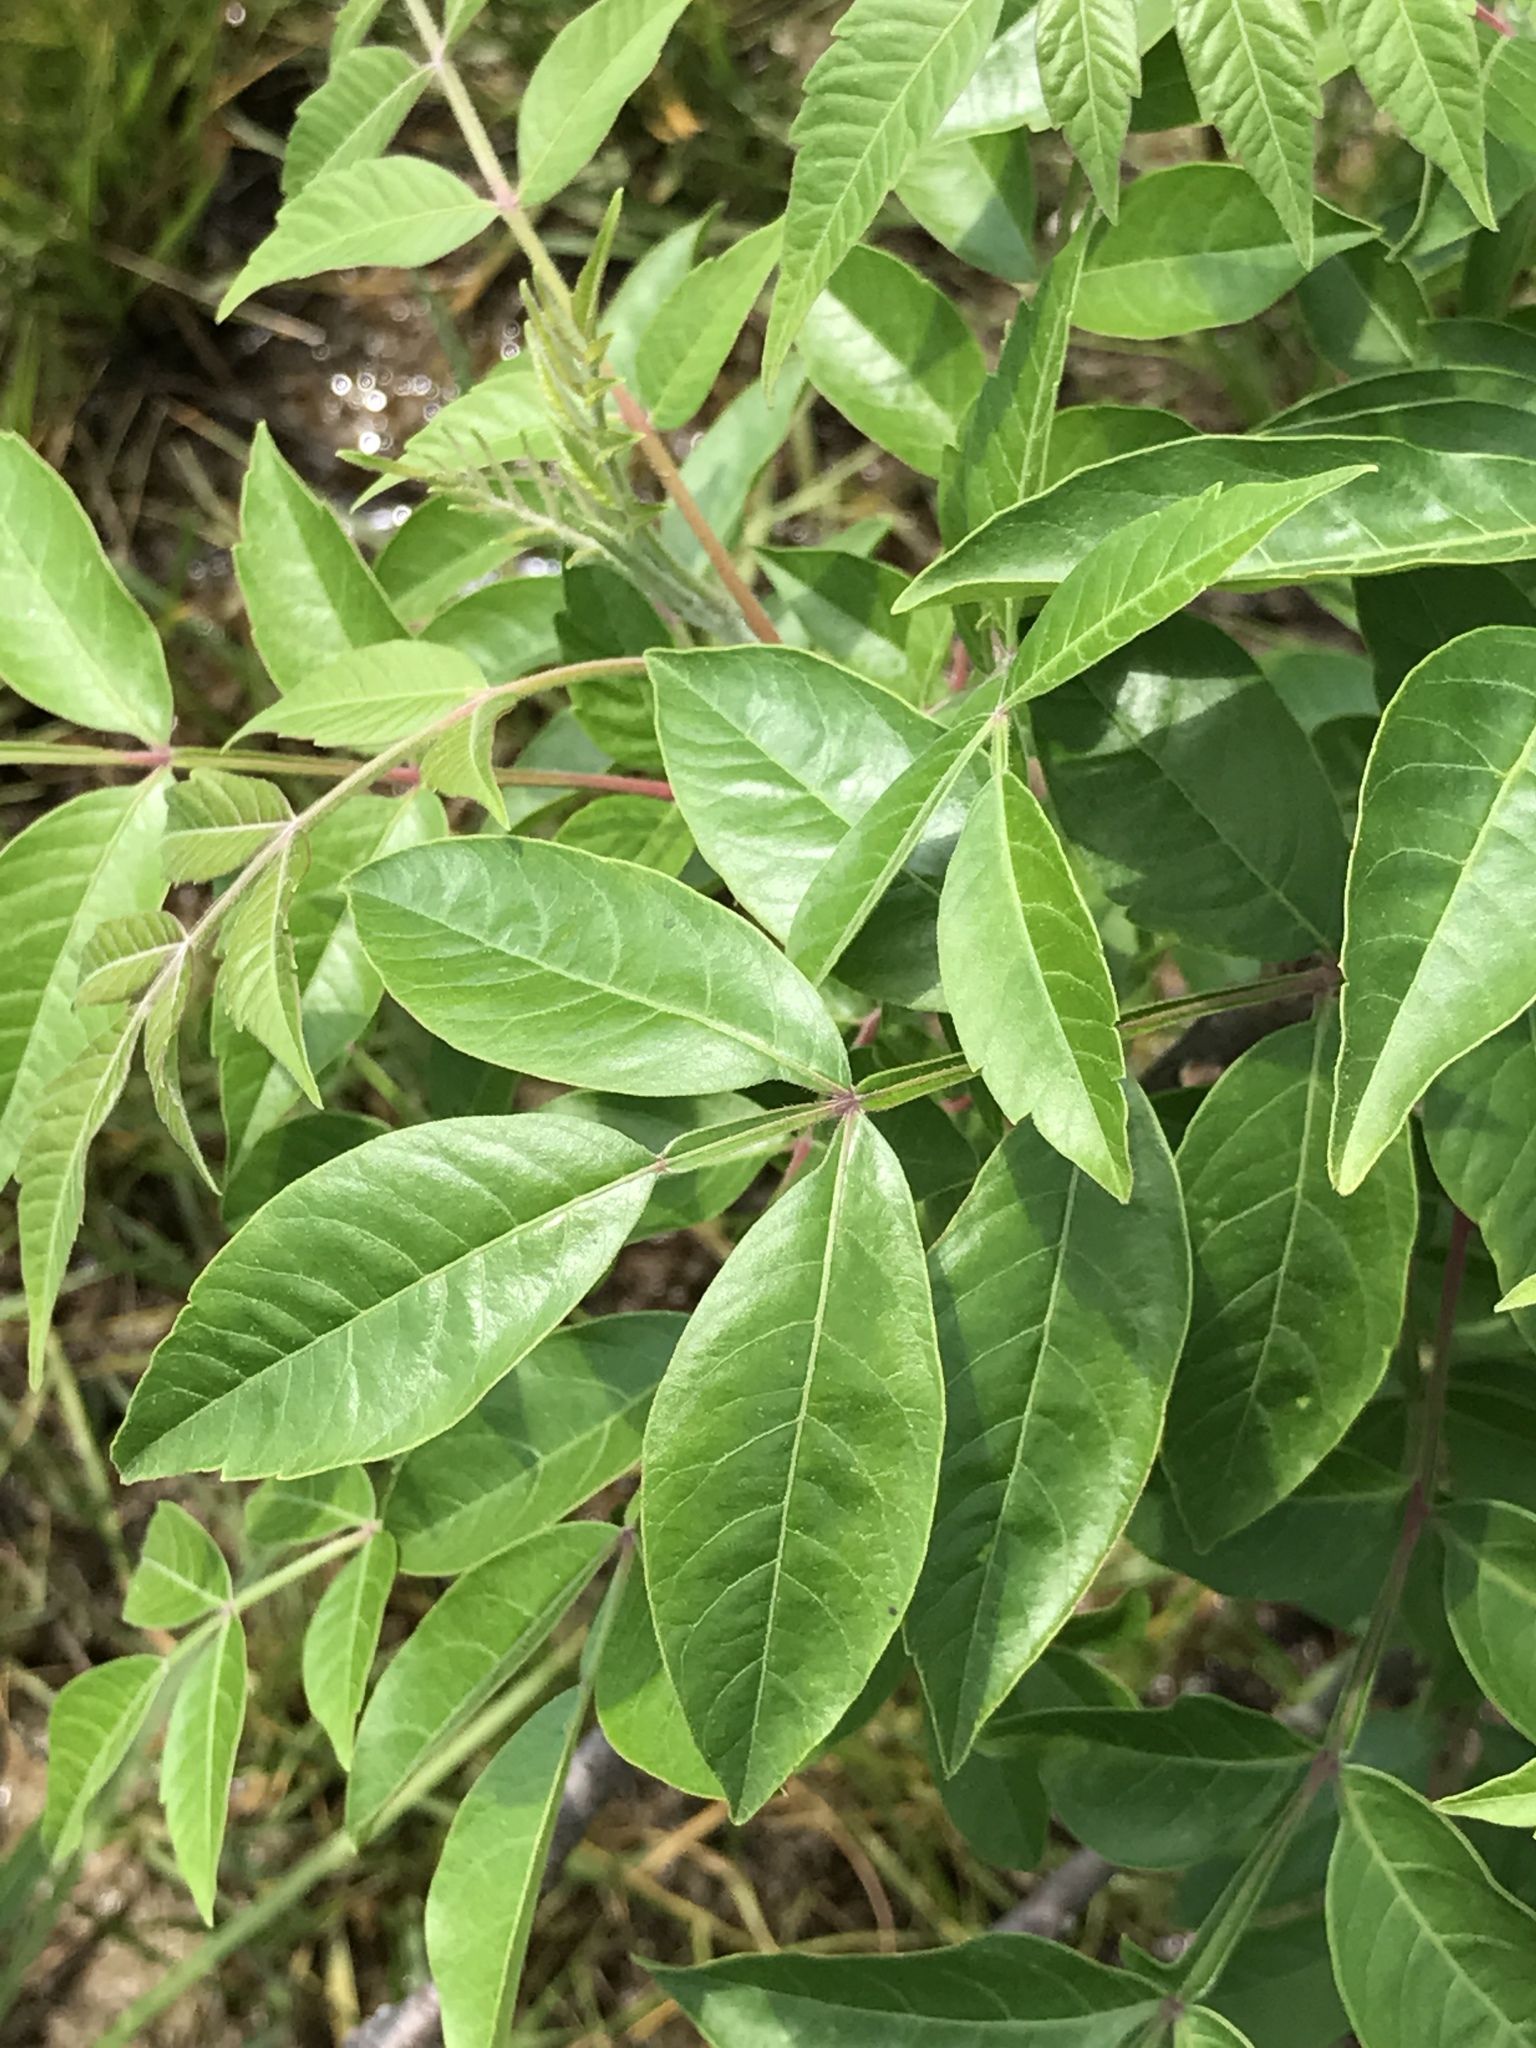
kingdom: Plantae
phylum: Tracheophyta
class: Magnoliopsida
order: Sapindales
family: Anacardiaceae
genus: Rhus
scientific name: Rhus copallina
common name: Shining sumac
